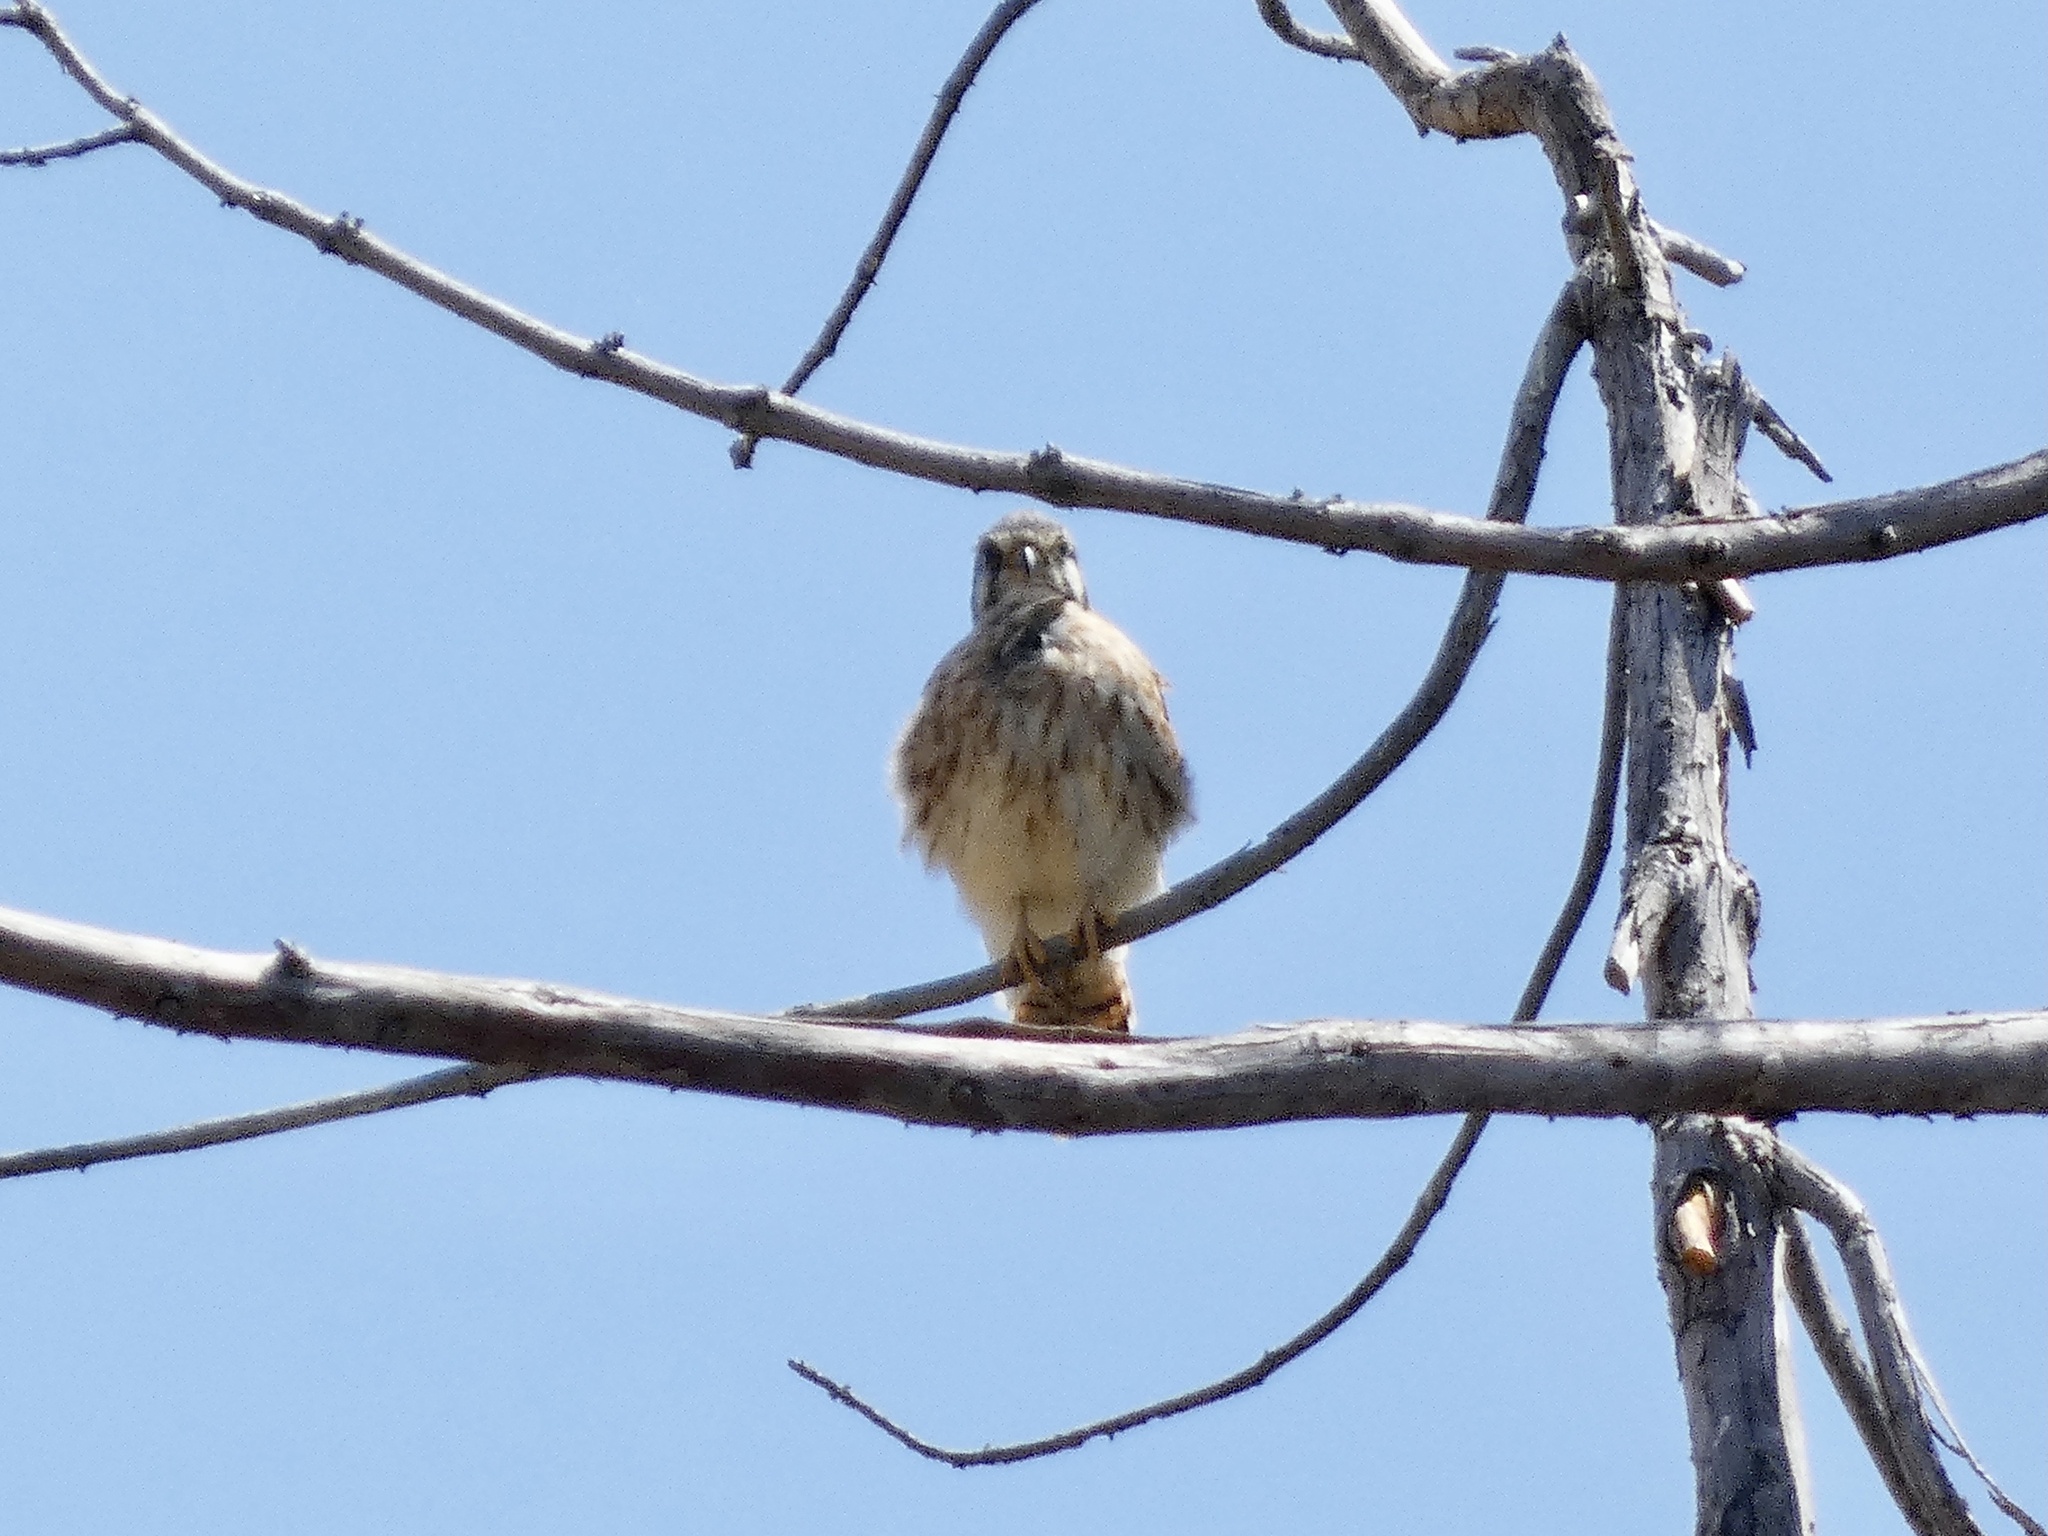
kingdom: Animalia
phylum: Chordata
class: Aves
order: Falconiformes
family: Falconidae
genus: Falco
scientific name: Falco sparverius
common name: American kestrel
